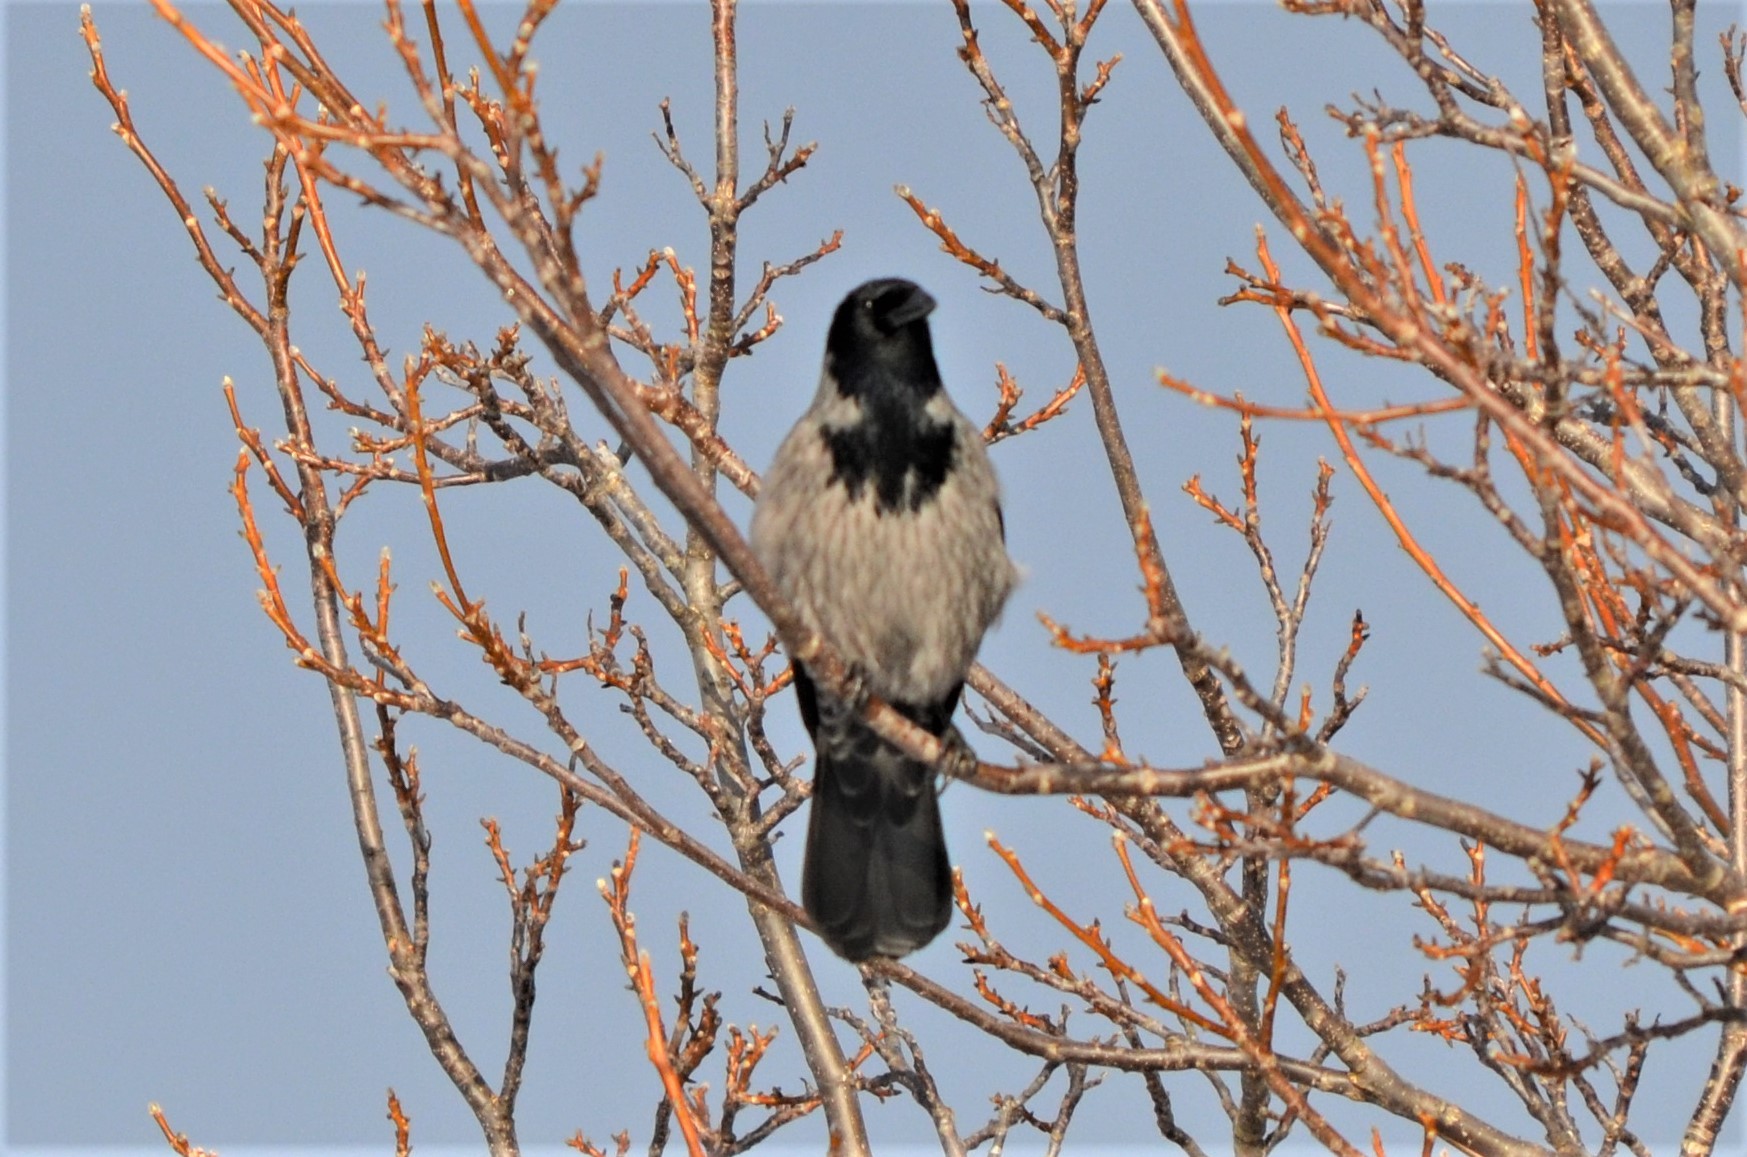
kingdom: Animalia
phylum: Chordata
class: Aves
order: Passeriformes
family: Corvidae
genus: Corvus
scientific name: Corvus cornix
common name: Hooded crow
